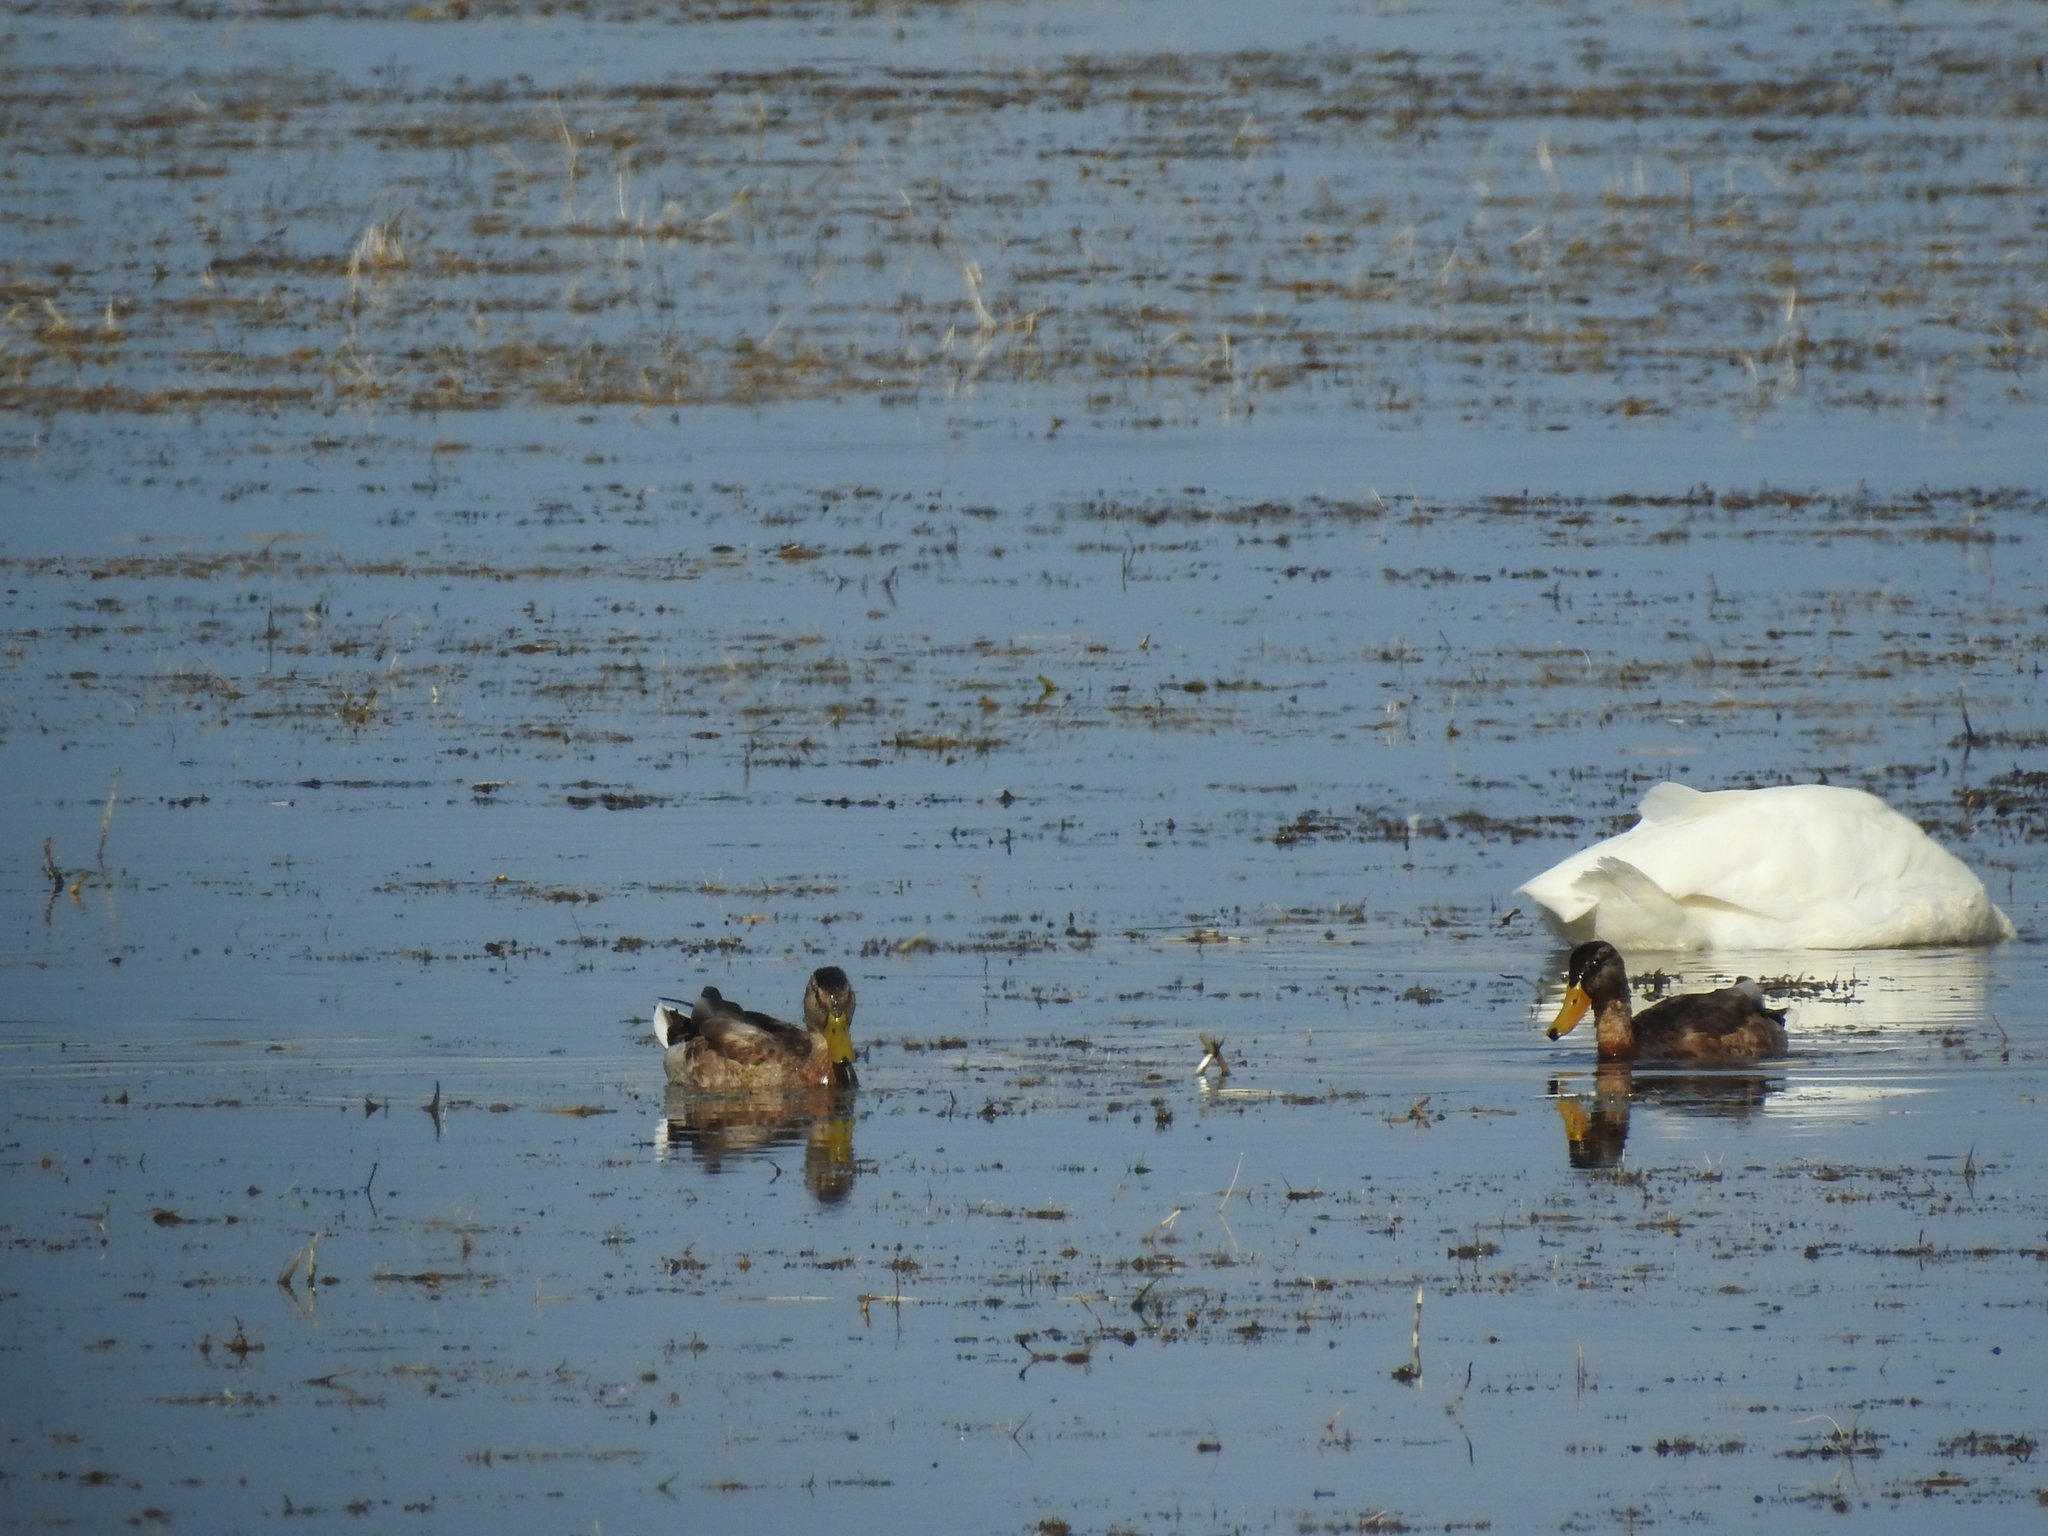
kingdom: Animalia
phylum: Chordata
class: Aves
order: Anseriformes
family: Anatidae
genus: Anas
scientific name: Anas platyrhynchos
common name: Mallard
